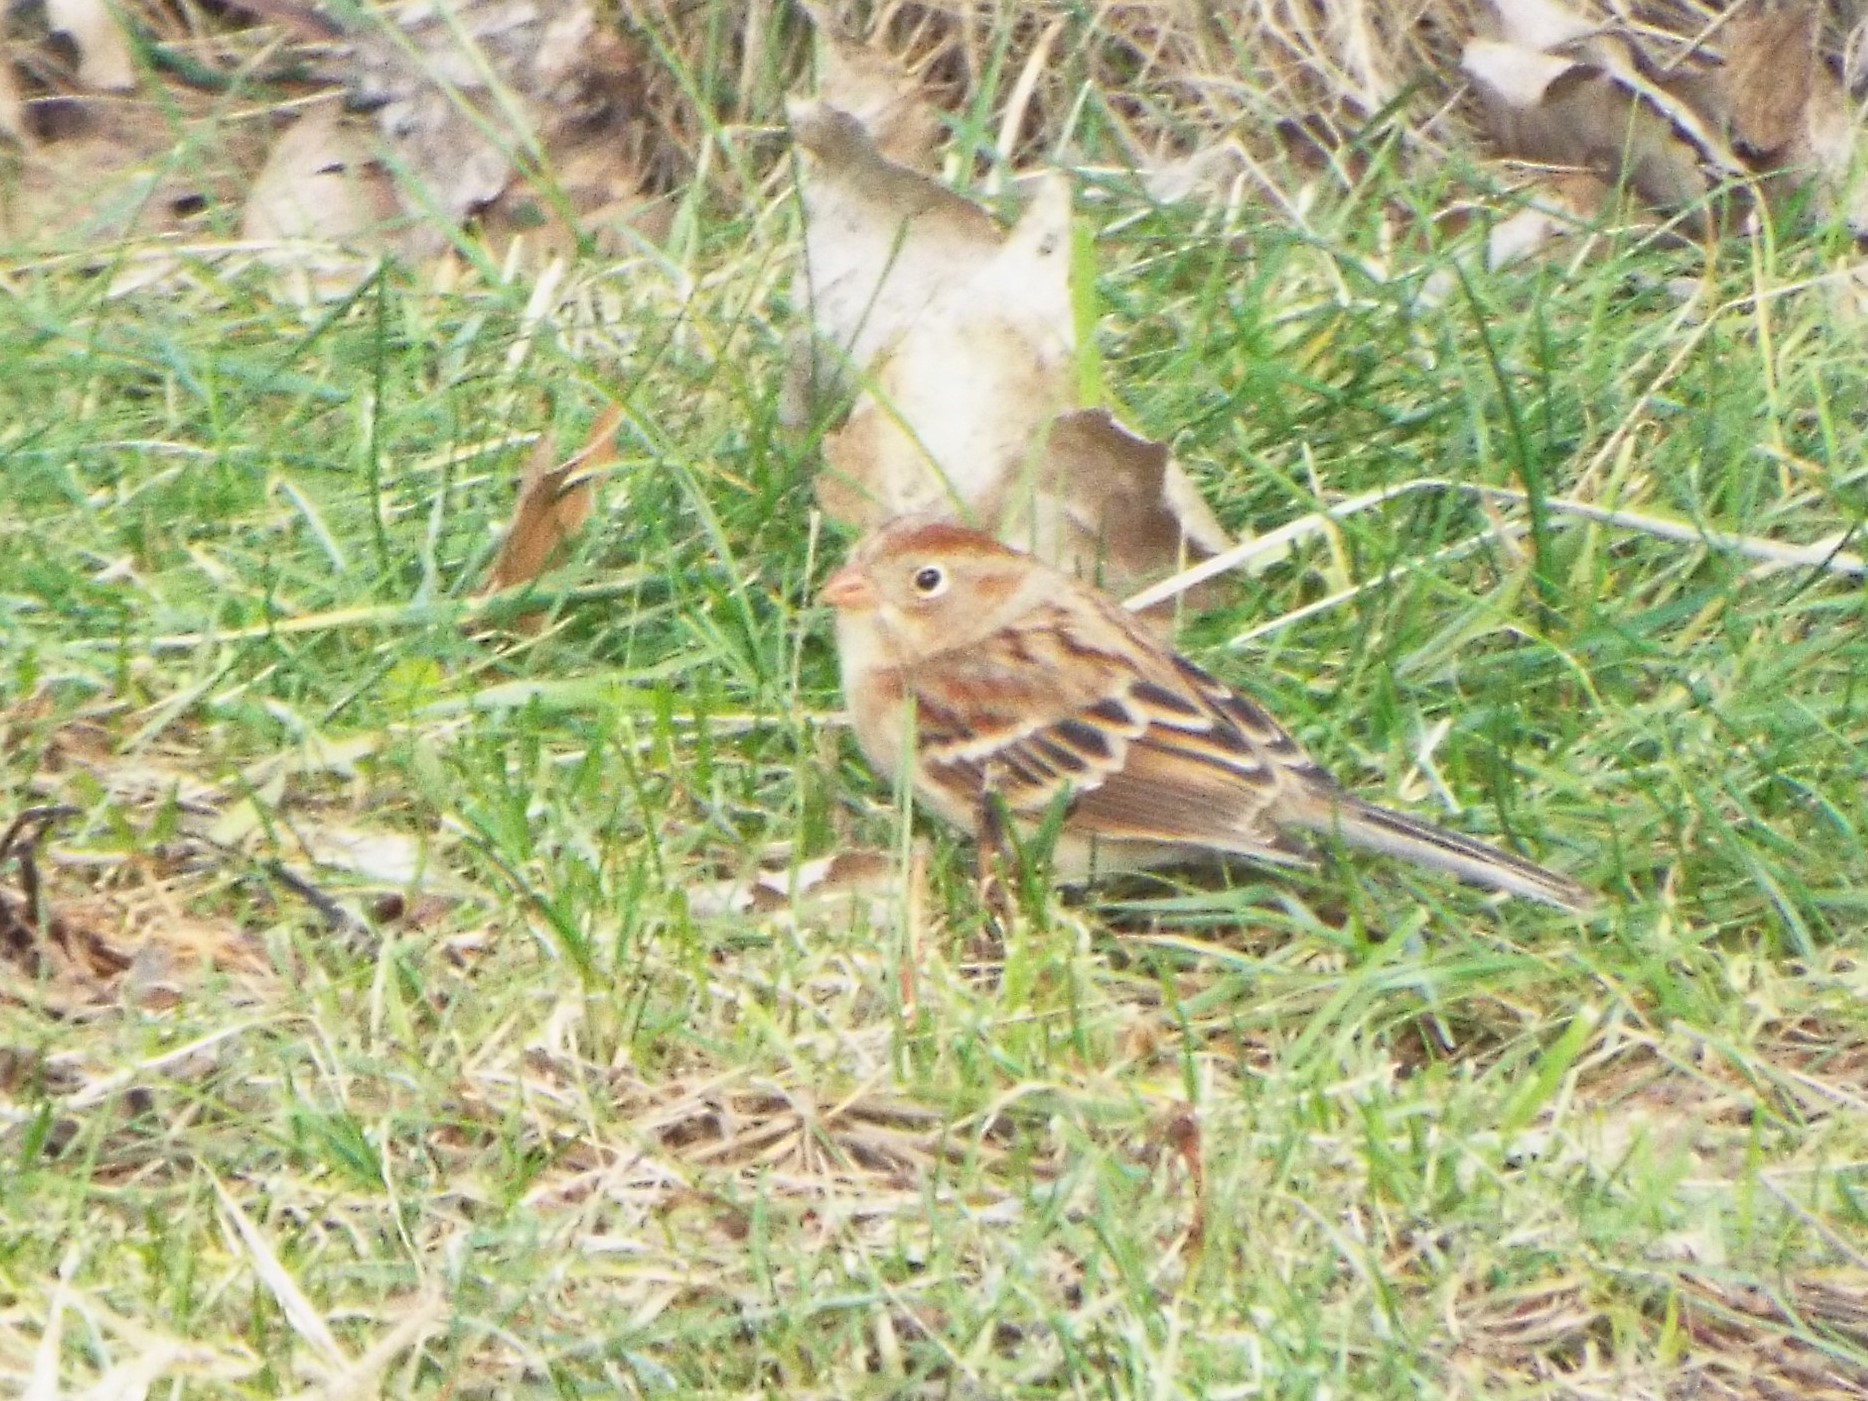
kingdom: Animalia
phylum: Chordata
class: Aves
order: Passeriformes
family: Passerellidae
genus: Spizella
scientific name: Spizella pusilla
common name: Field sparrow
